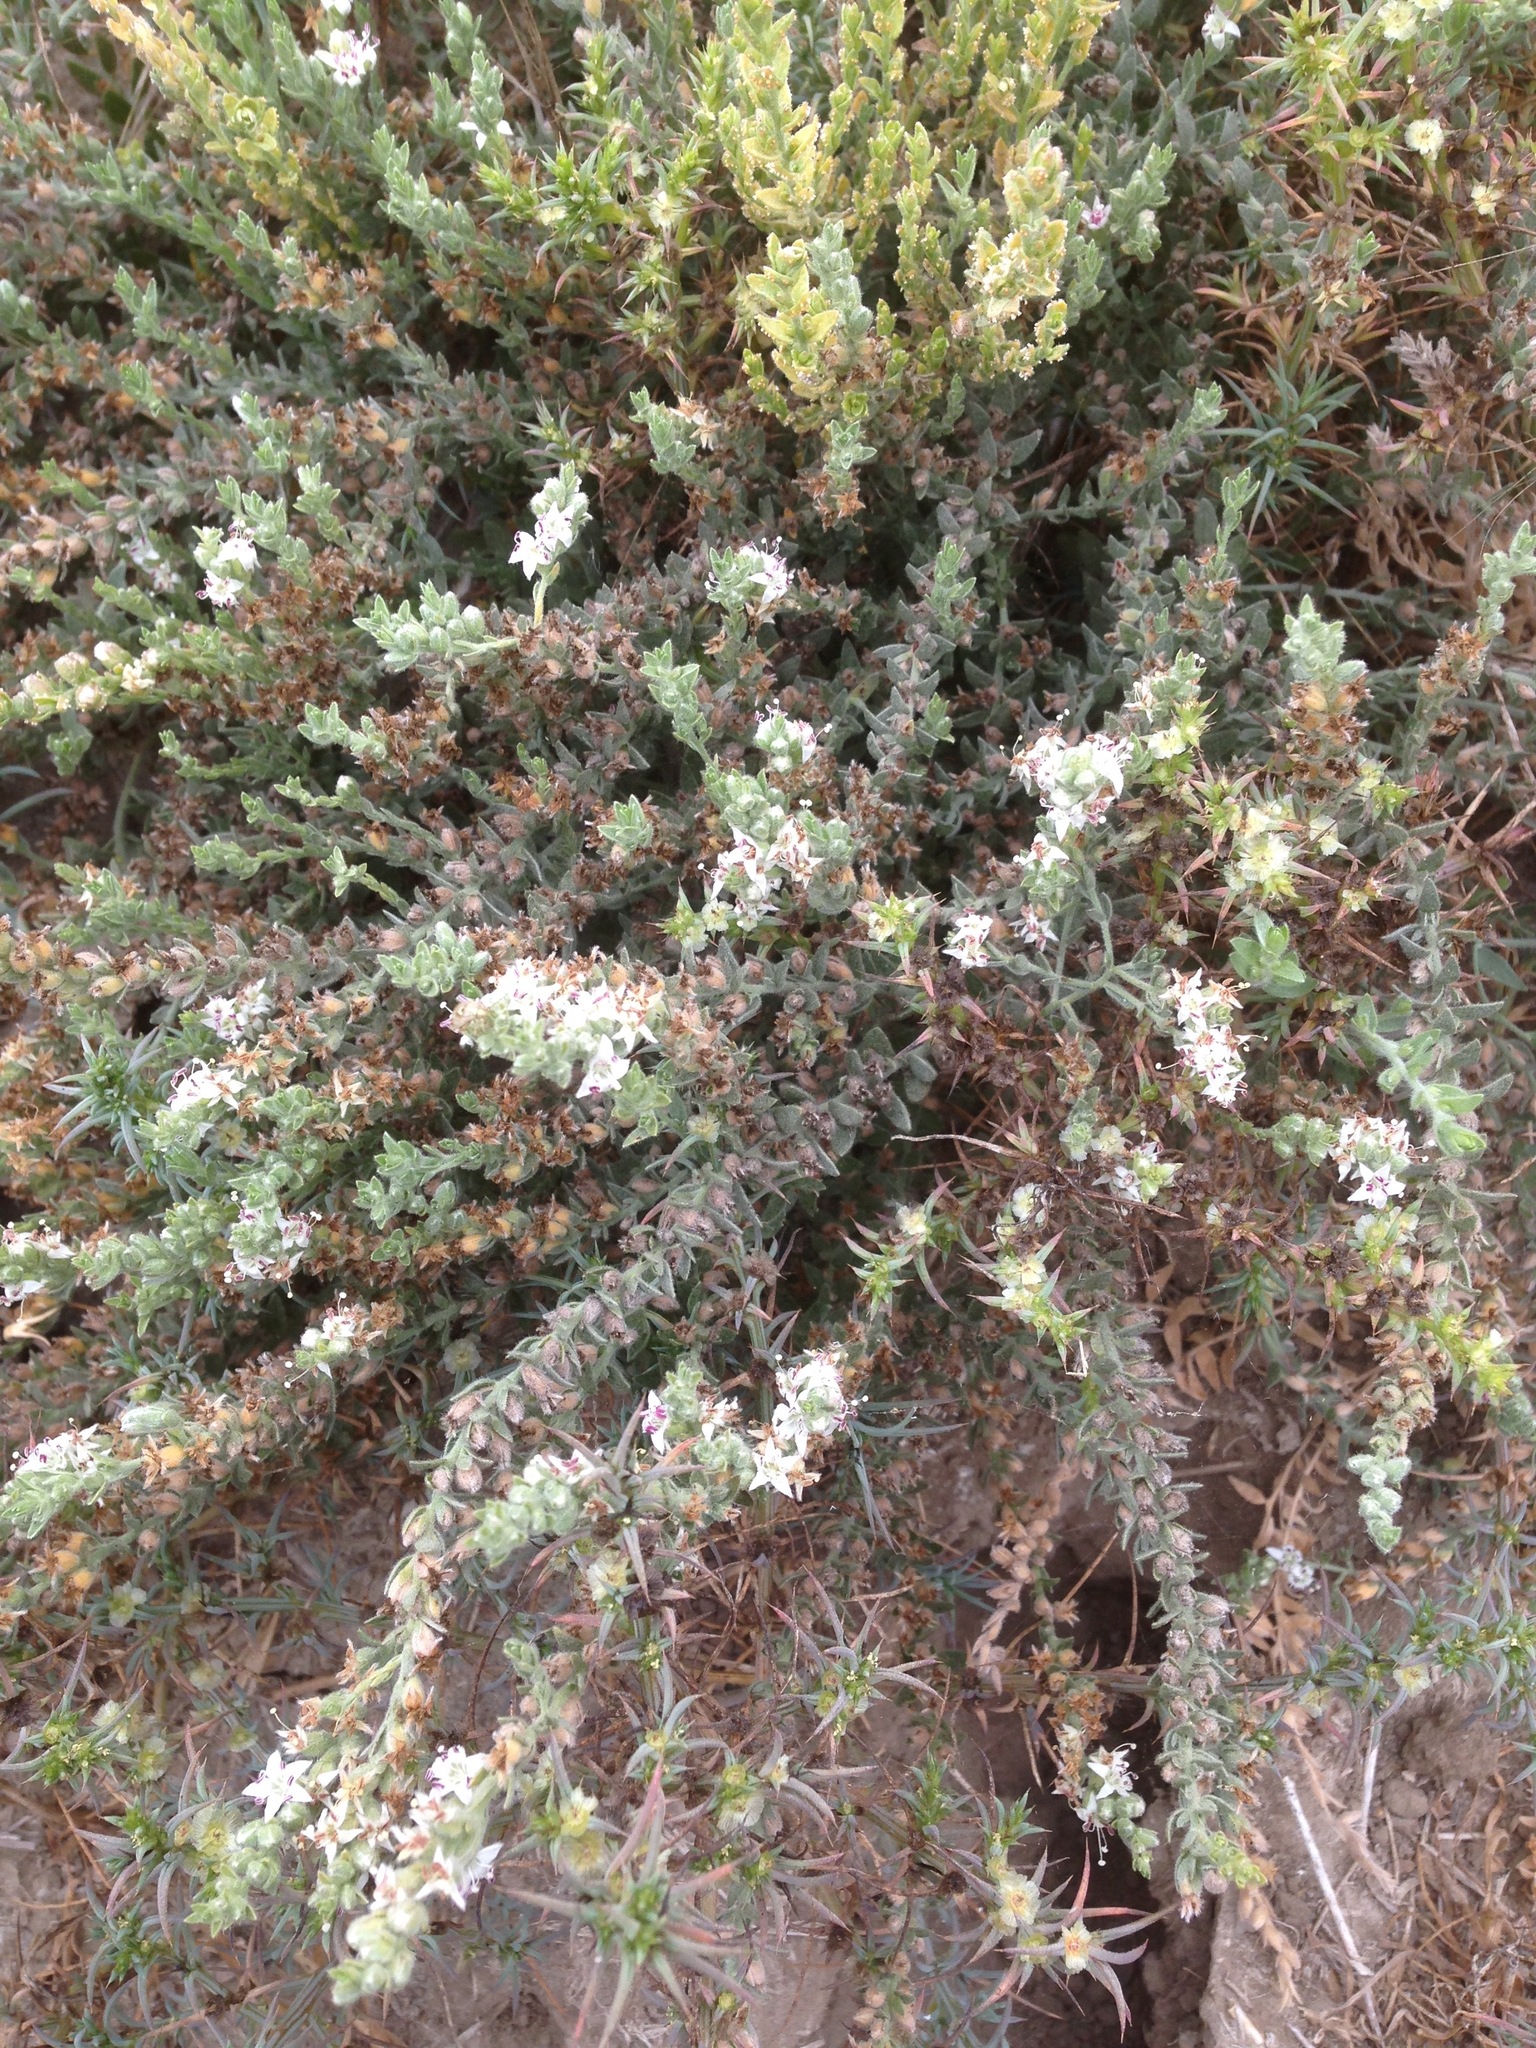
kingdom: Plantae
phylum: Tracheophyta
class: Magnoliopsida
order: Solanales
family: Convolvulaceae
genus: Cressa
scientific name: Cressa truxillensis
